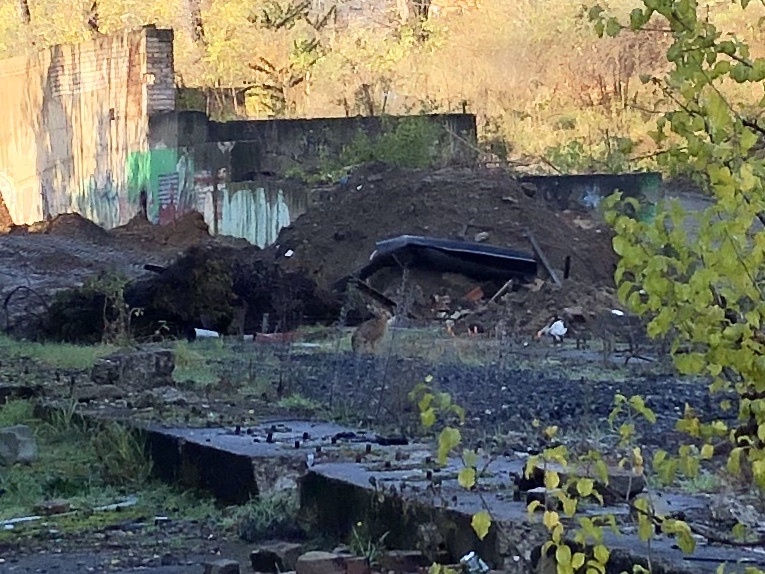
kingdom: Animalia
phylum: Chordata
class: Mammalia
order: Lagomorpha
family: Leporidae
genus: Lepus
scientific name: Lepus europaeus
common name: European hare
